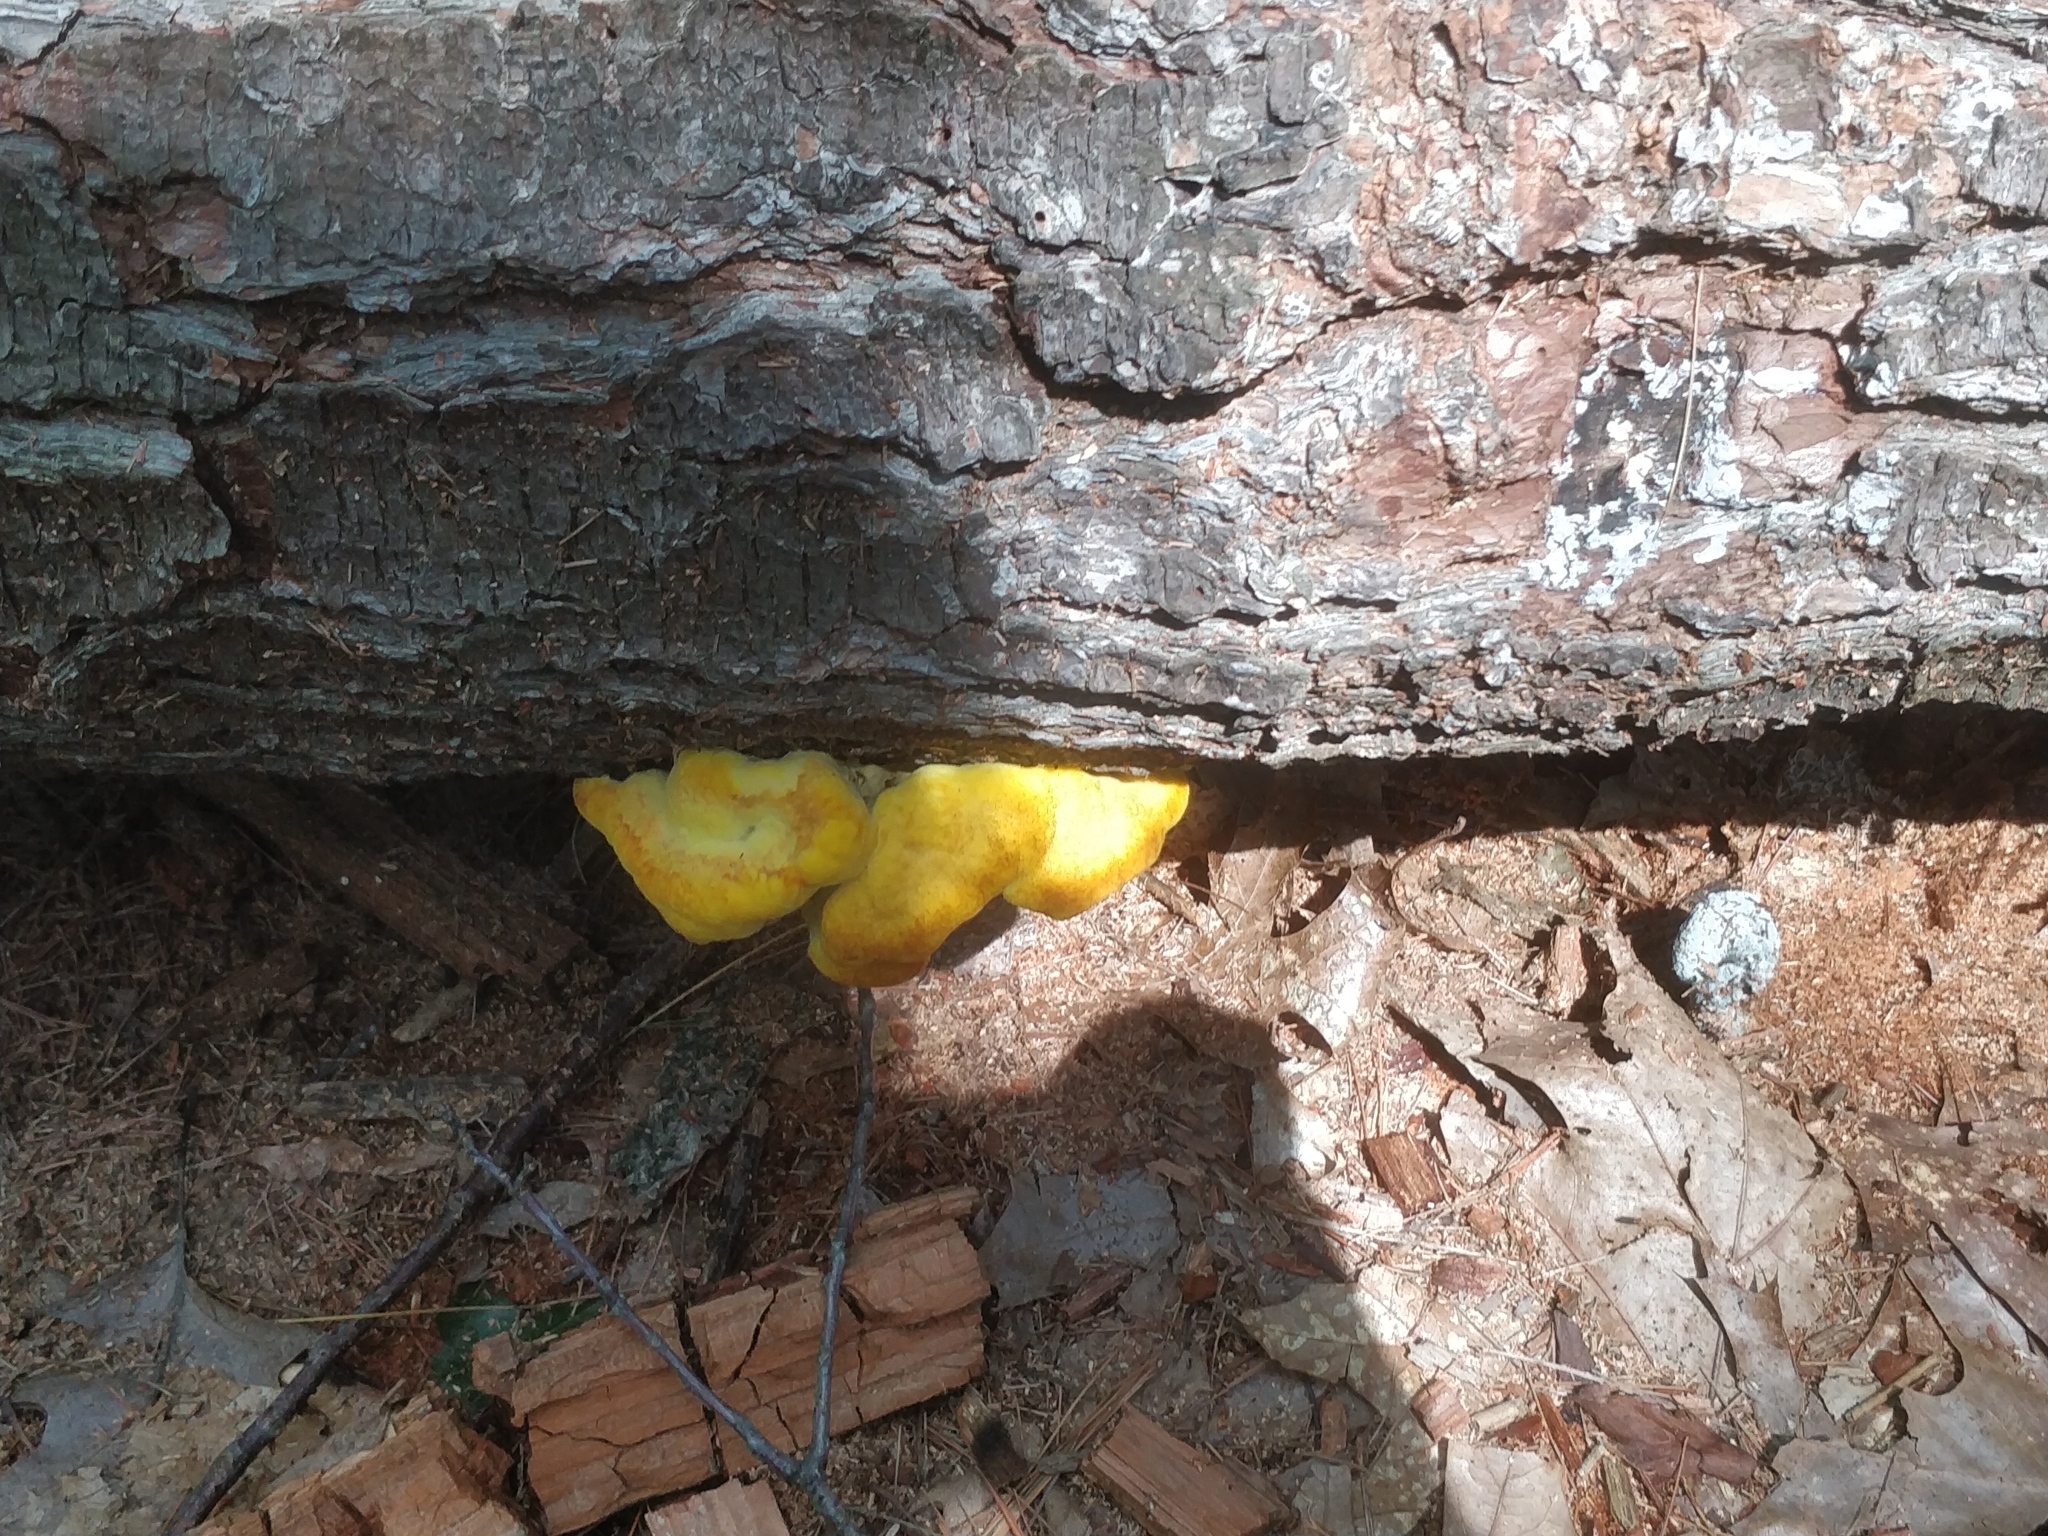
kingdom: Fungi
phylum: Basidiomycota
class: Agaricomycetes
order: Polyporales
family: Laetiporaceae
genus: Phaeolus
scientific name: Phaeolus schweinitzii
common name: Dyer's mazegill
